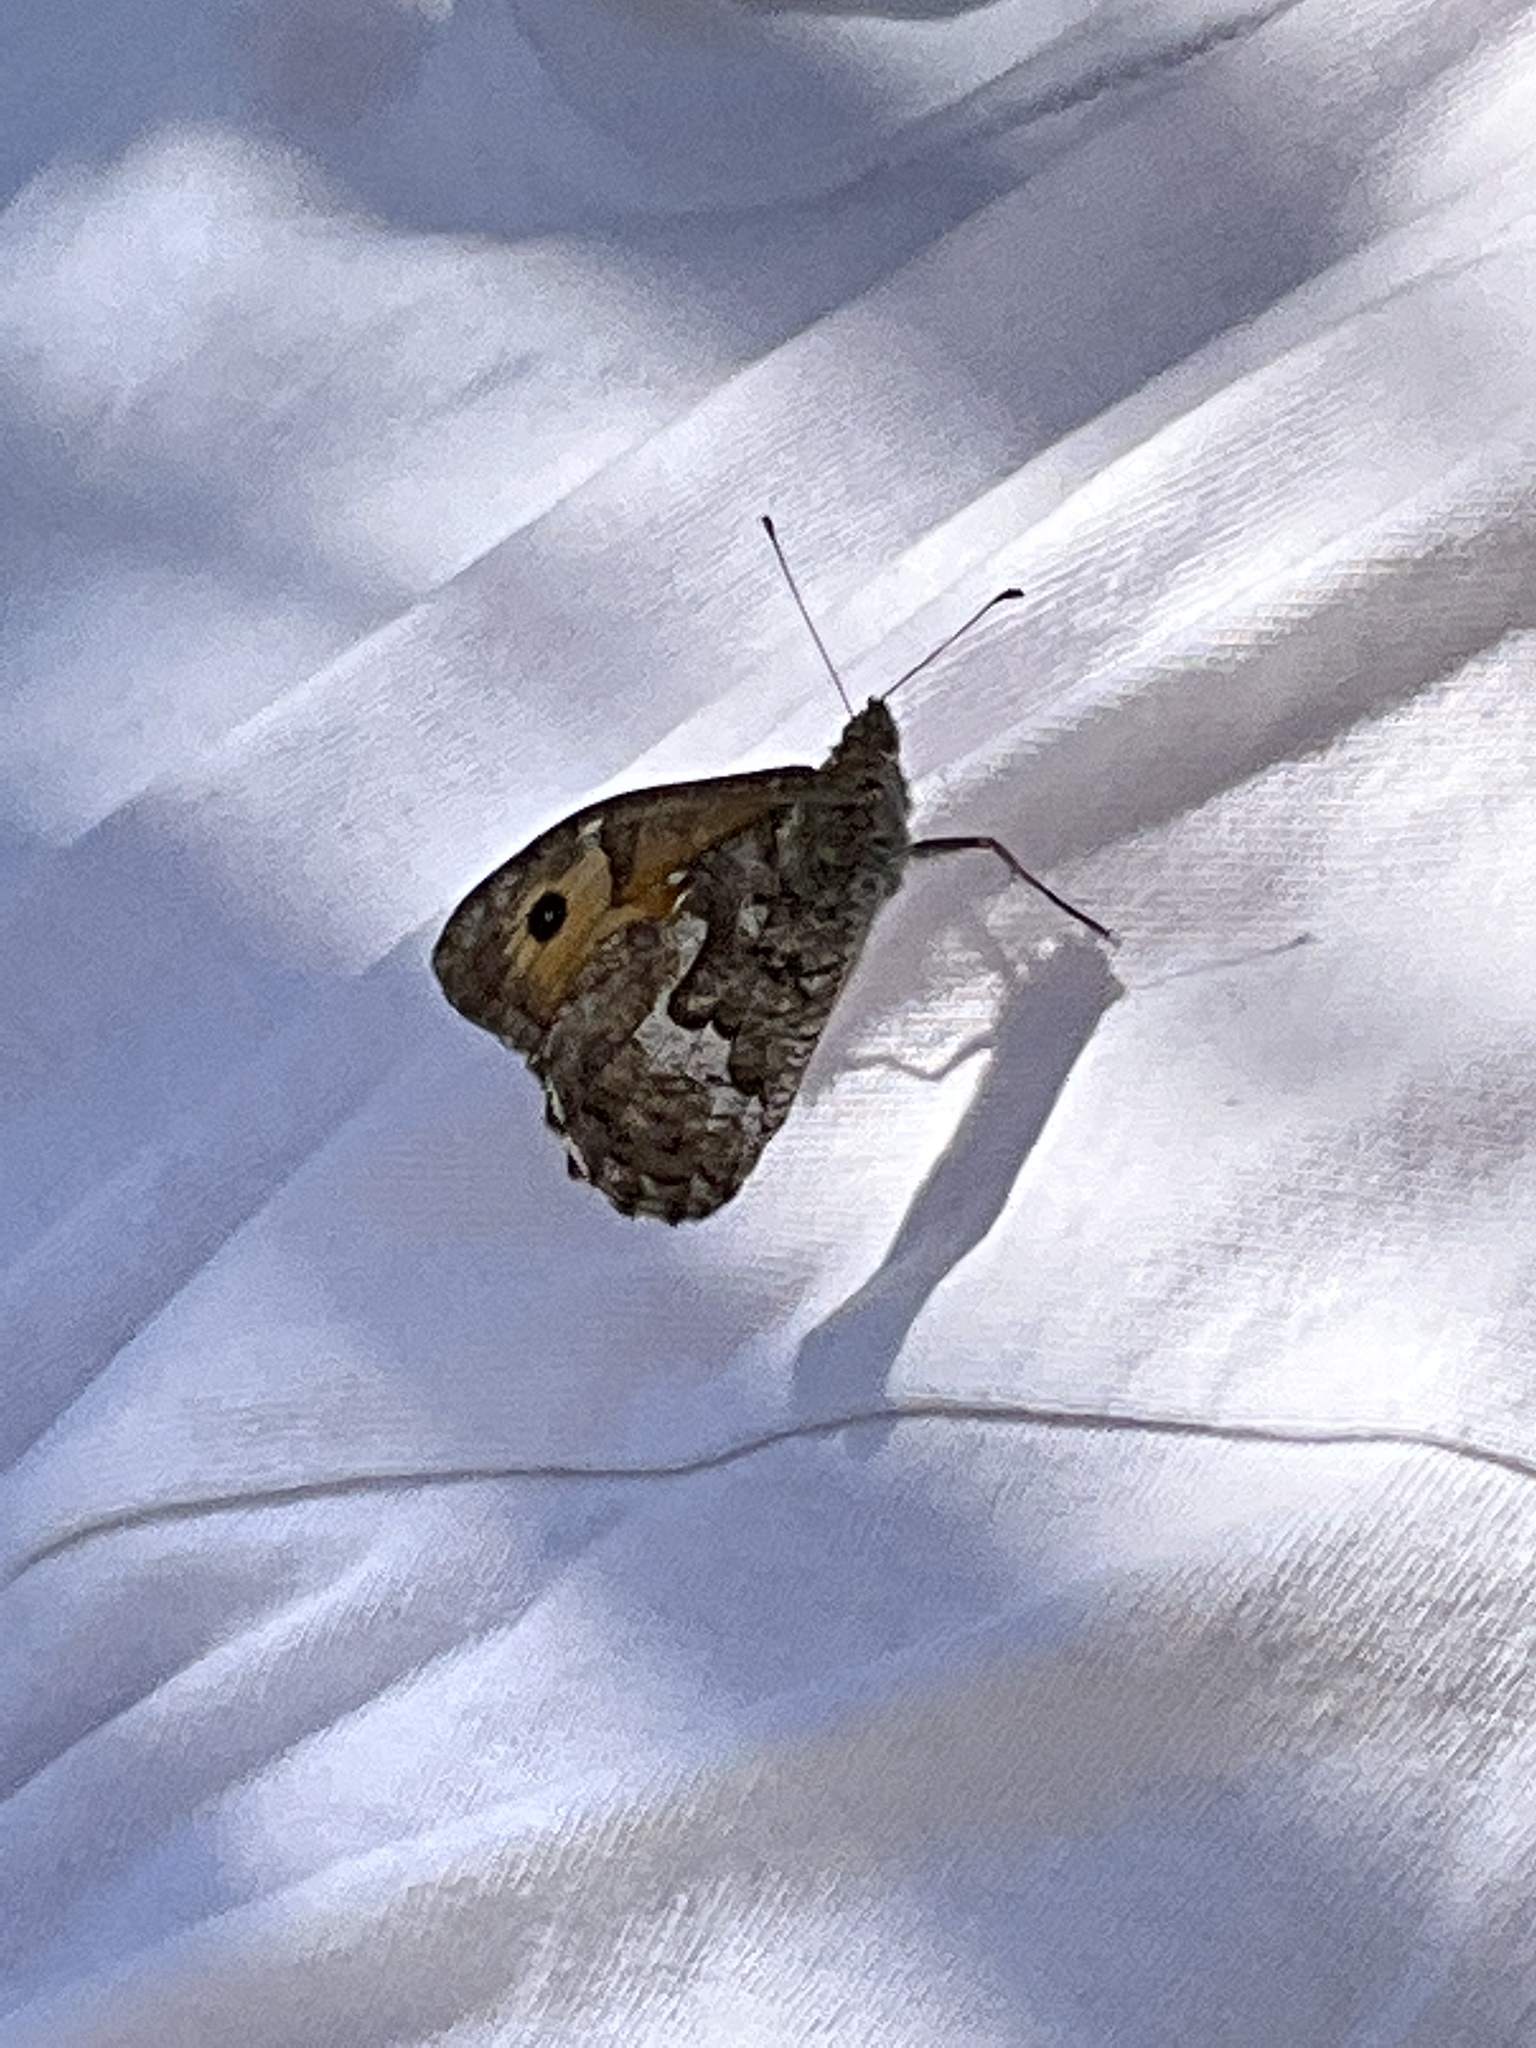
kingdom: Animalia
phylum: Arthropoda
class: Insecta
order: Lepidoptera
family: Nymphalidae
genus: Hipparchia
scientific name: Hipparchia cretica
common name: Cretan grayling
